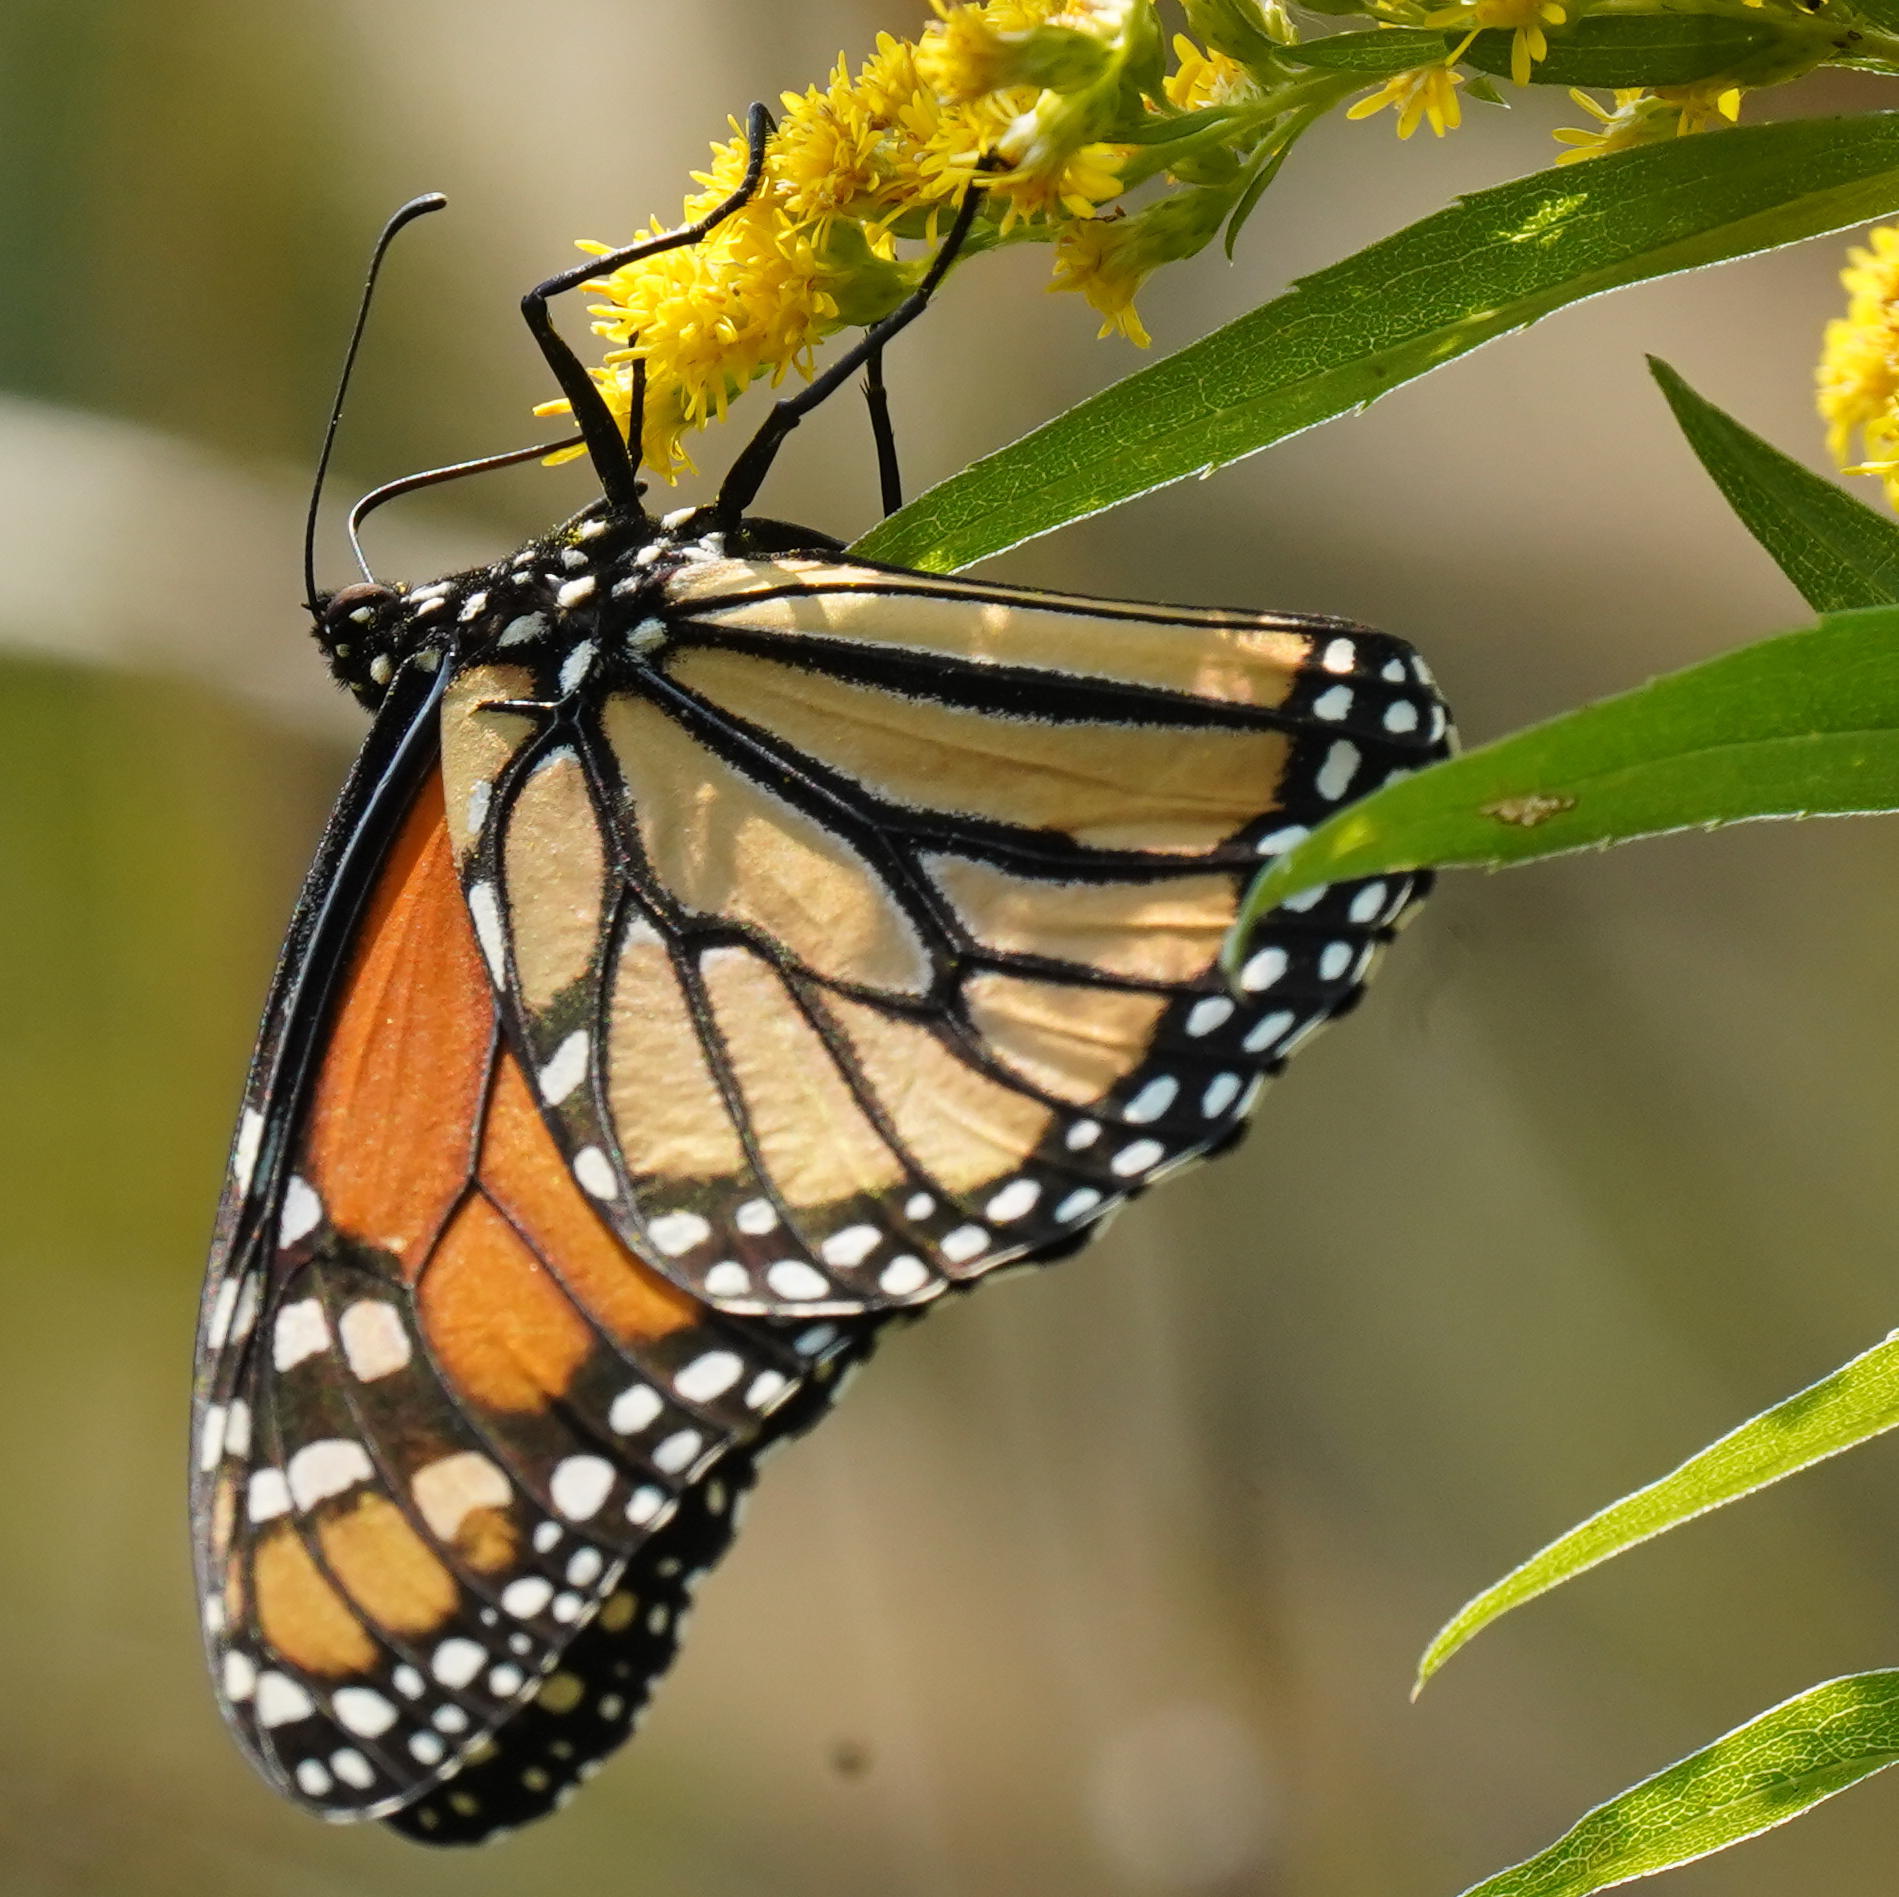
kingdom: Animalia
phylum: Arthropoda
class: Insecta
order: Lepidoptera
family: Nymphalidae
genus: Danaus
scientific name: Danaus plexippus
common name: Monarch
